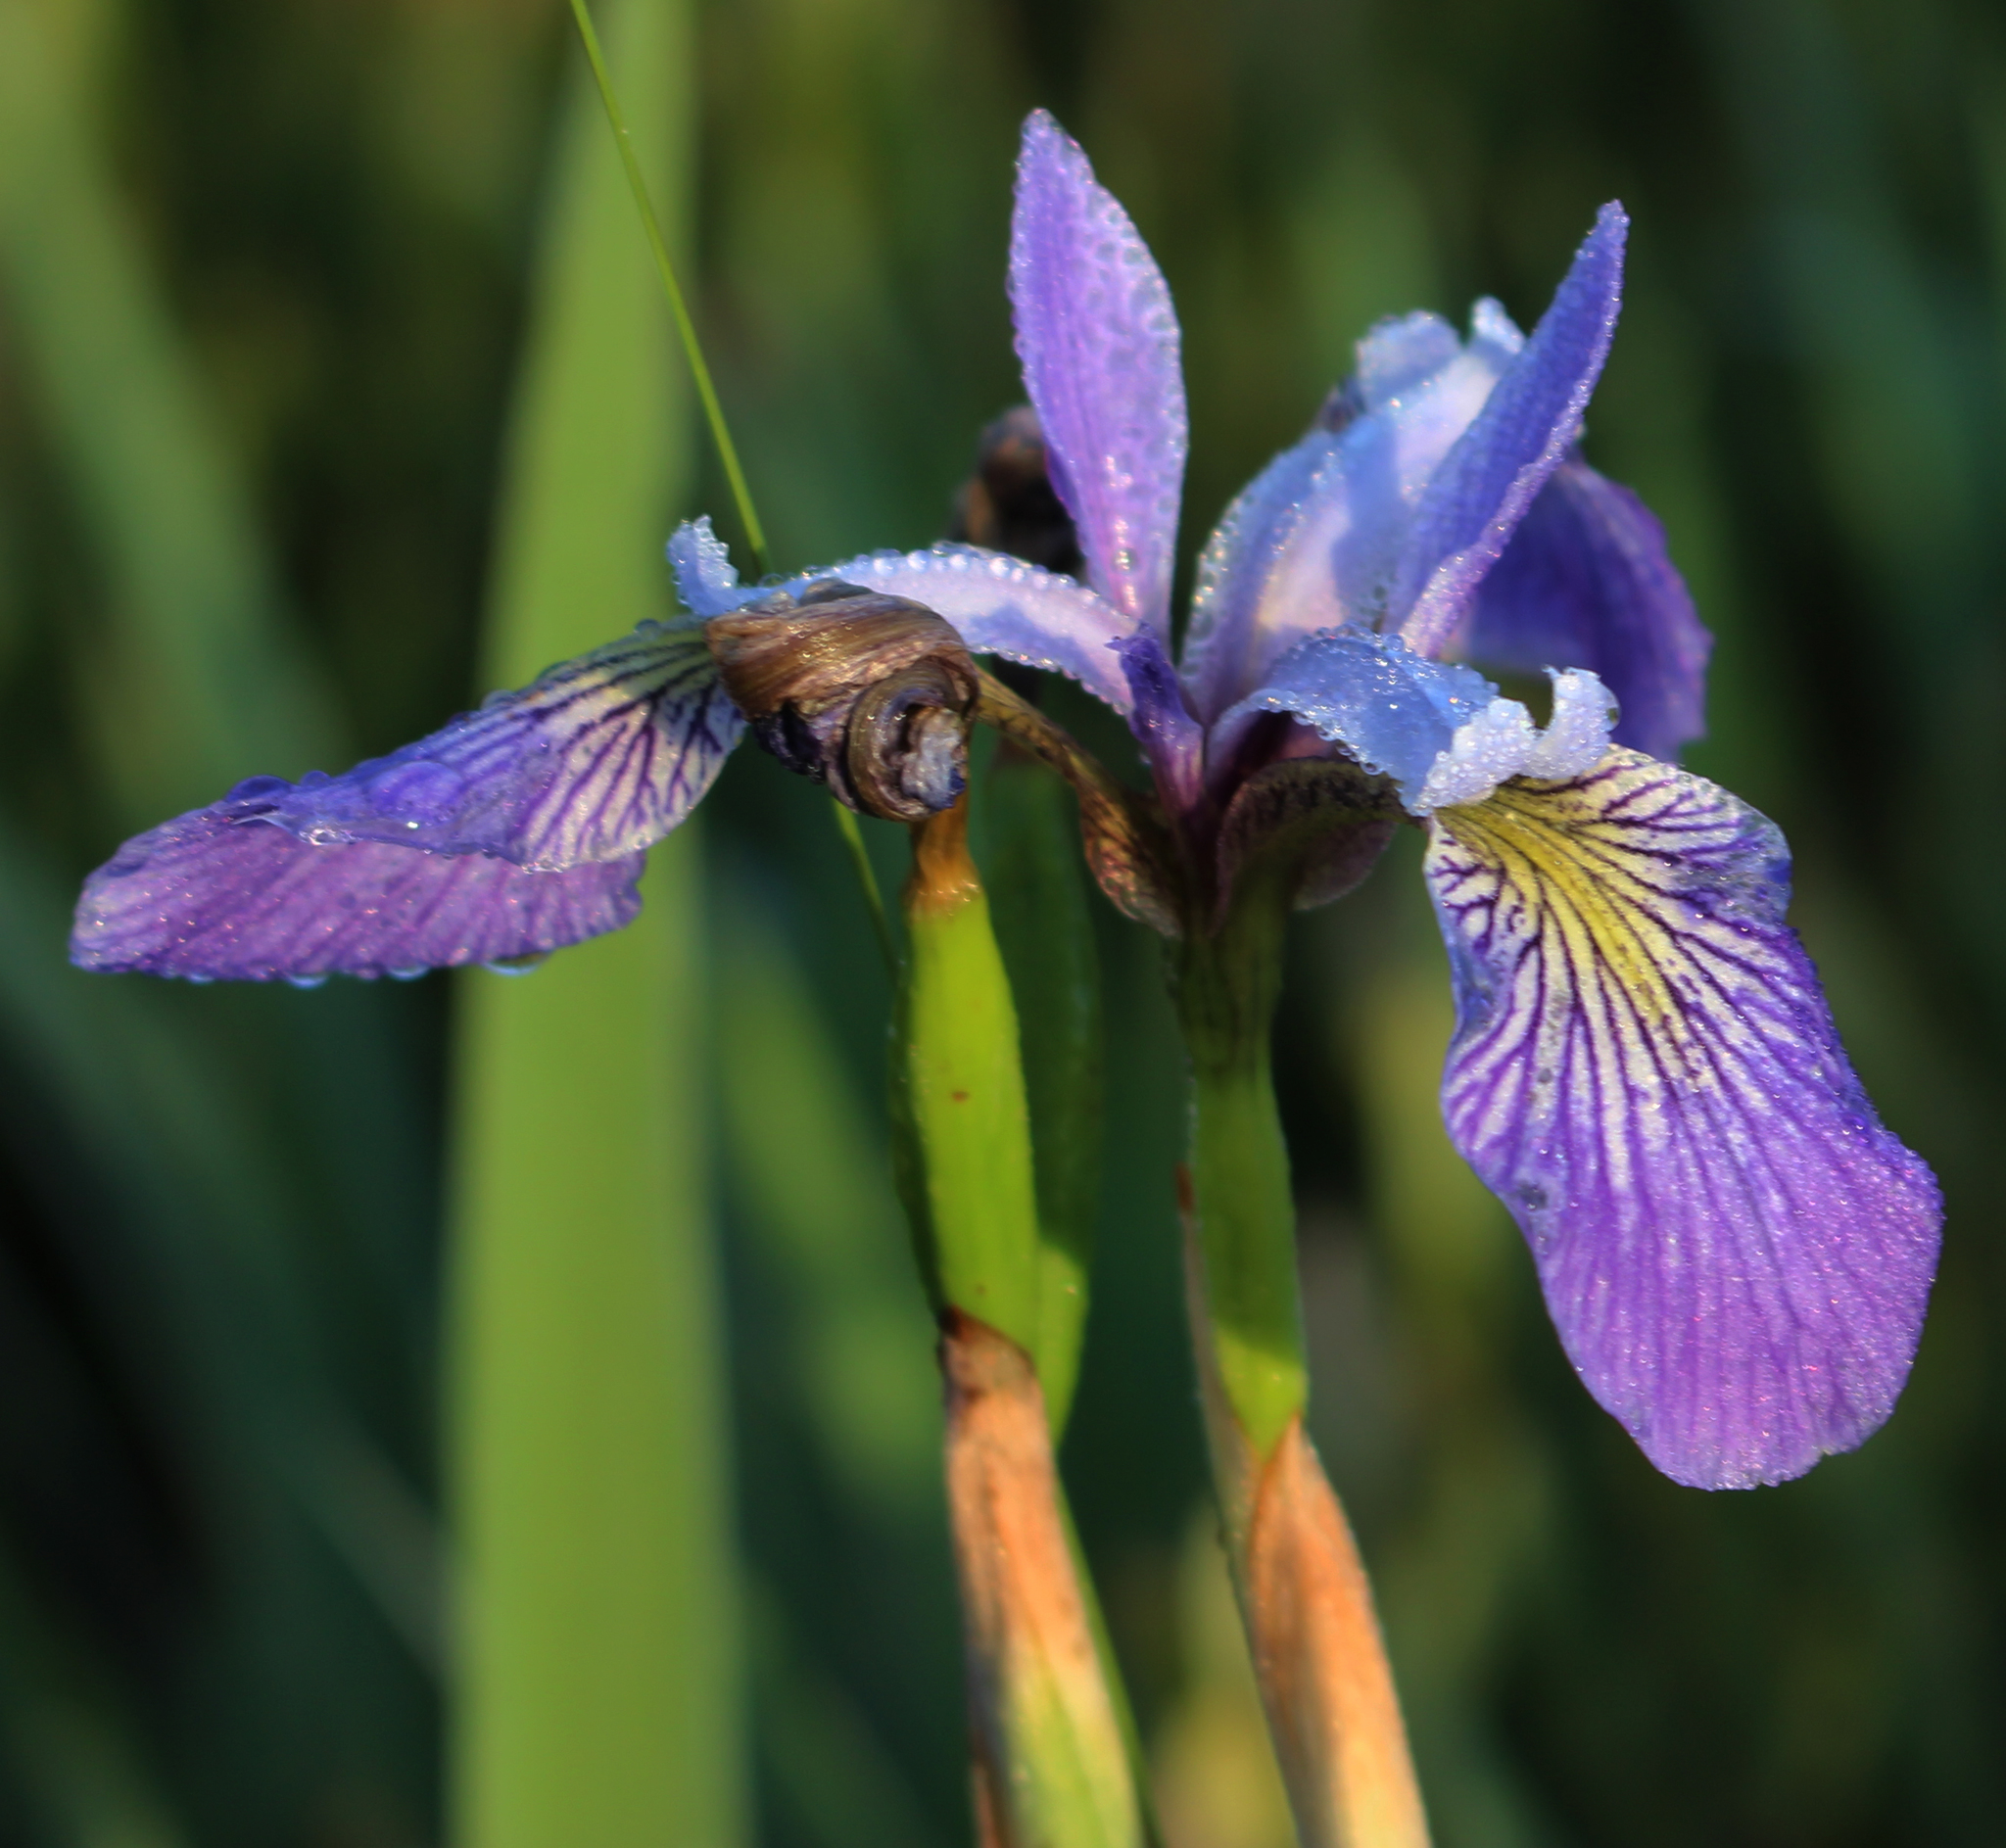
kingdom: Plantae
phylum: Tracheophyta
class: Liliopsida
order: Asparagales
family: Iridaceae
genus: Iris
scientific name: Iris versicolor
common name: Purple iris
